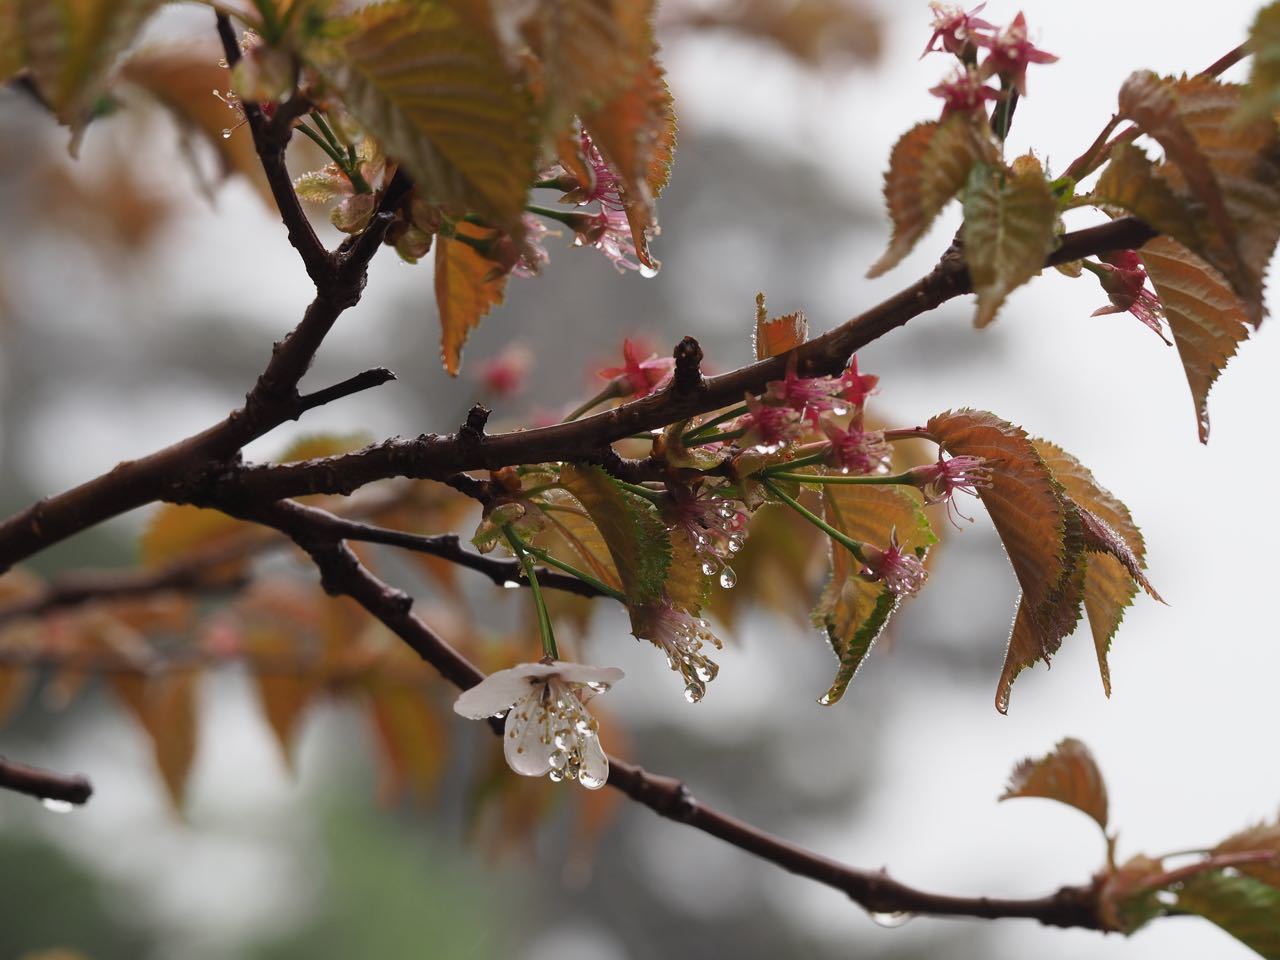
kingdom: Plantae
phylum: Tracheophyta
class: Magnoliopsida
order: Rosales
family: Rosaceae
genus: Prunus
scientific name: Prunus nipponica
